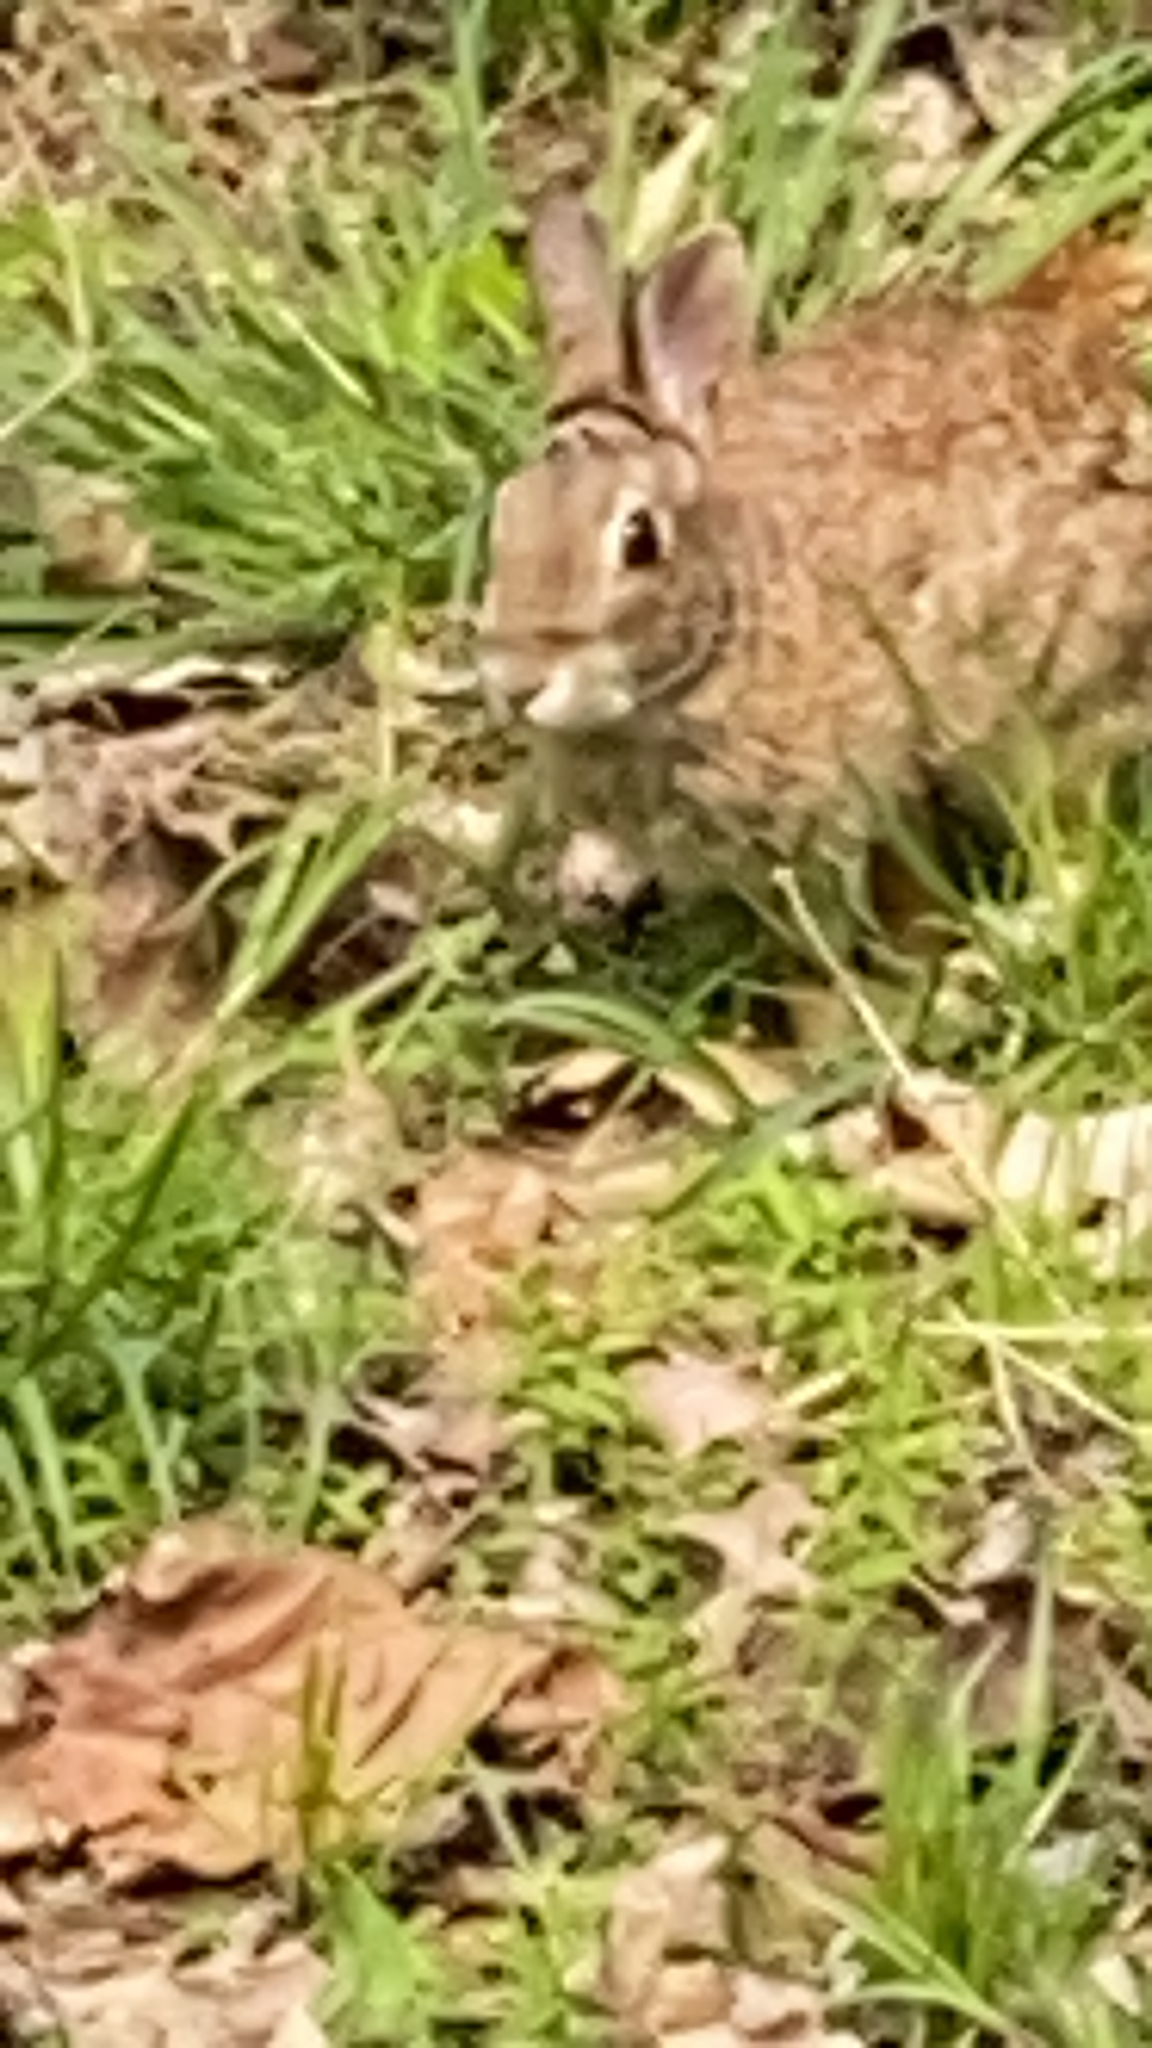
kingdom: Animalia
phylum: Chordata
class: Mammalia
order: Lagomorpha
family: Leporidae
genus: Sylvilagus
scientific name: Sylvilagus floridanus
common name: Eastern cottontail
